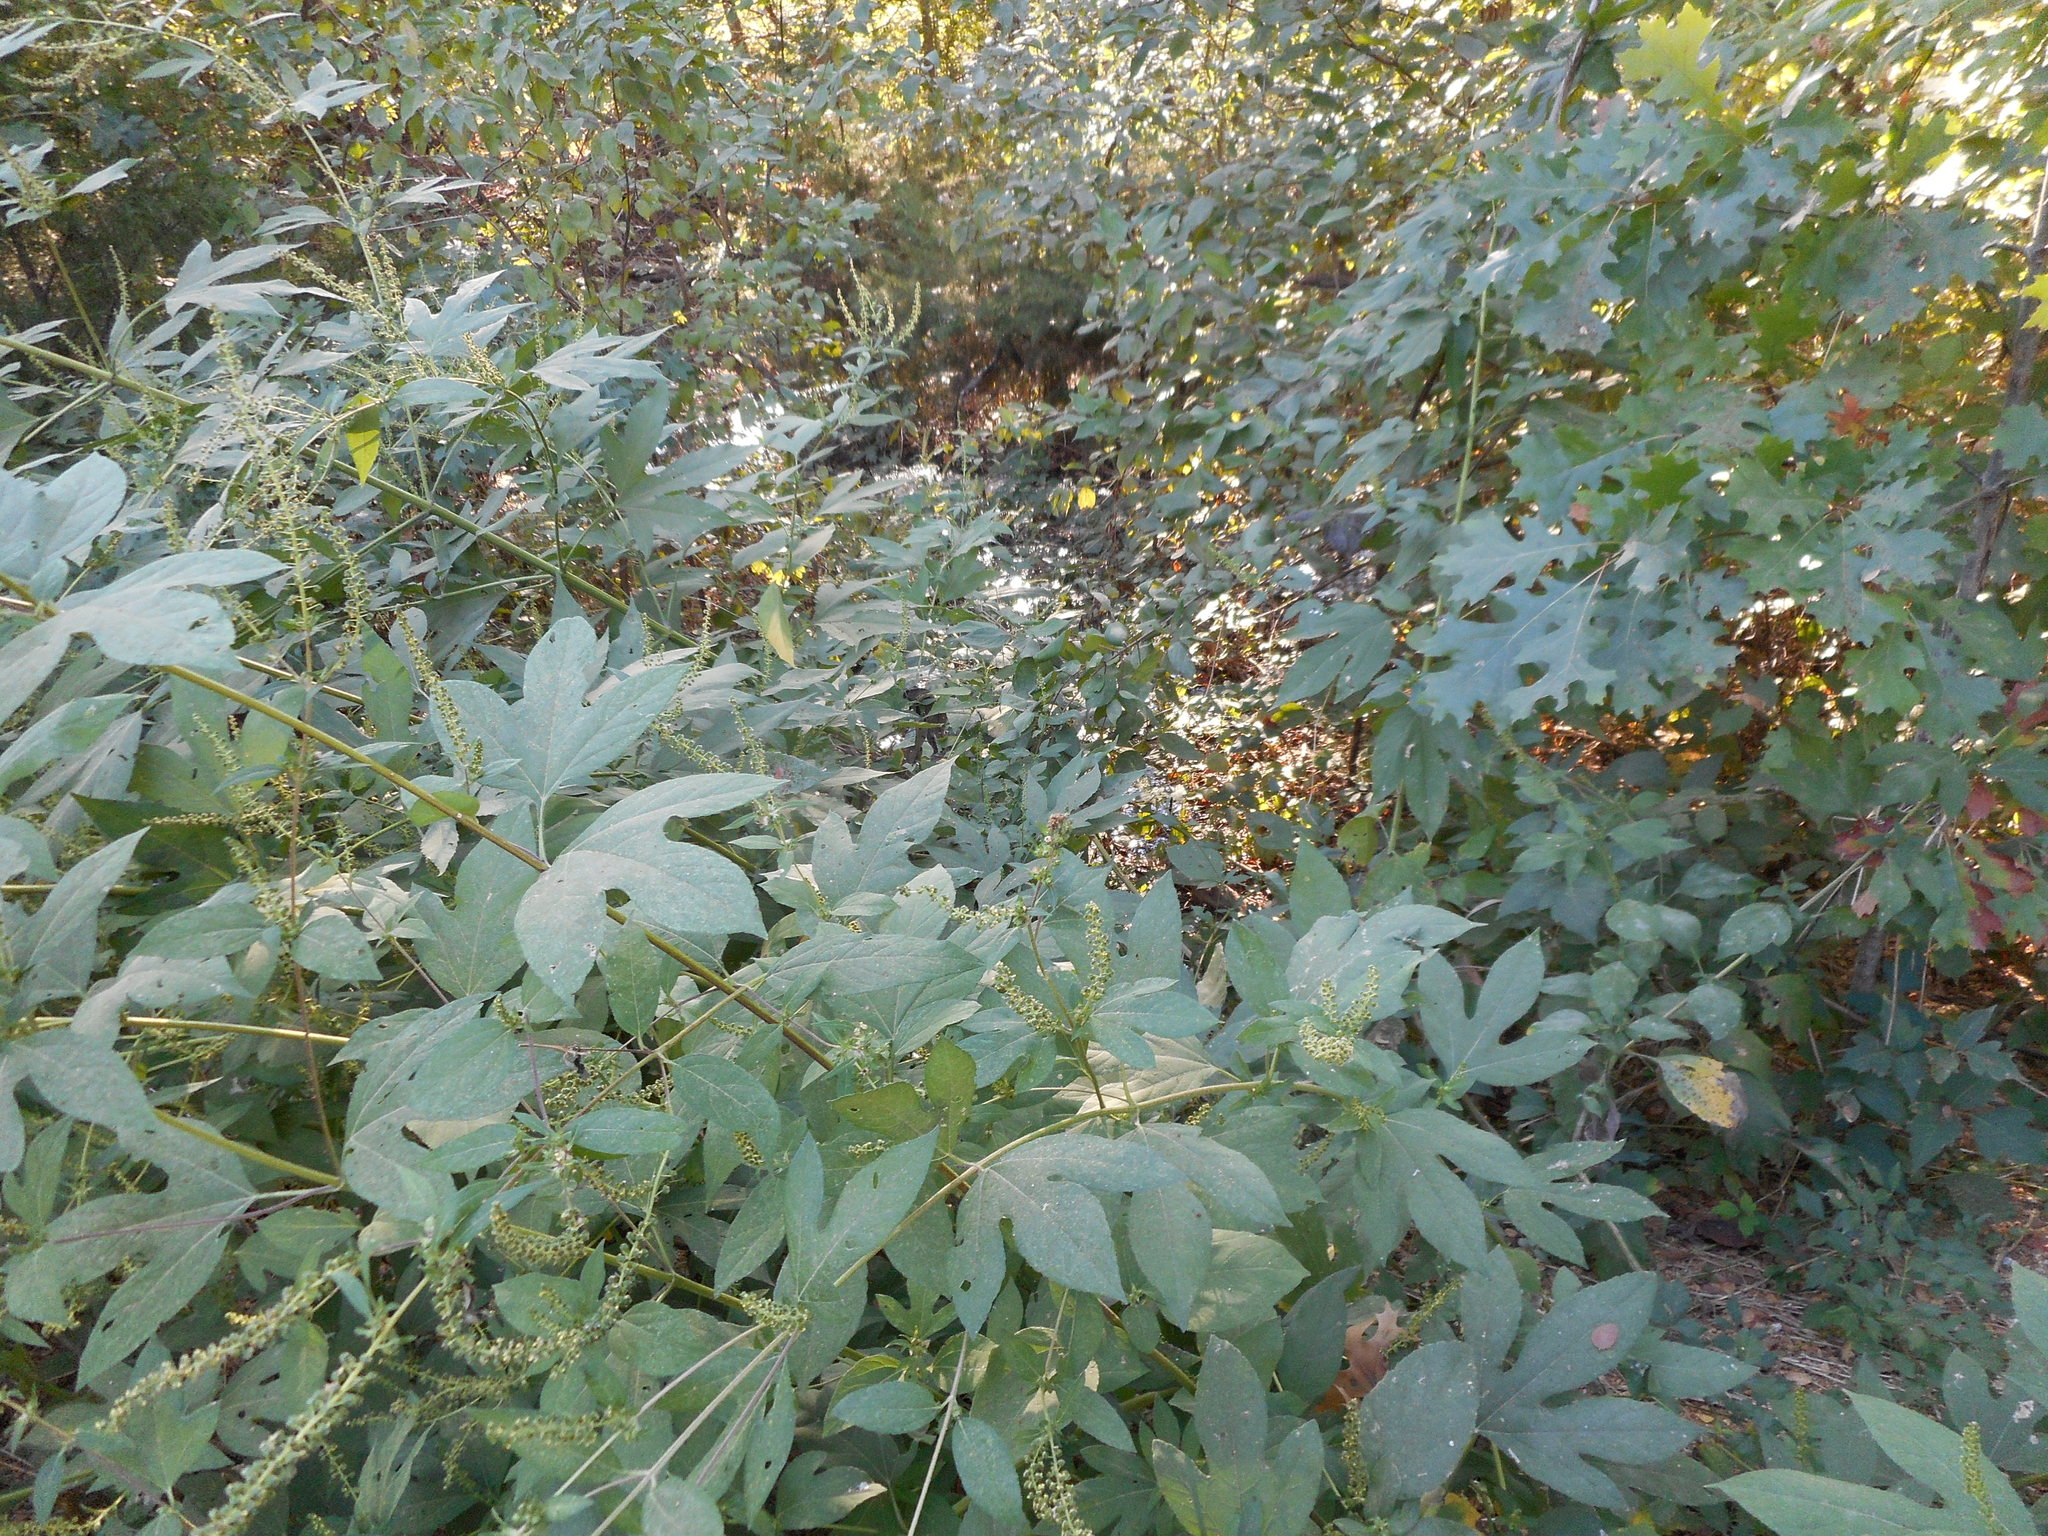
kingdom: Plantae
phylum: Tracheophyta
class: Magnoliopsida
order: Asterales
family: Asteraceae
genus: Ambrosia
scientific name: Ambrosia trifida
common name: Giant ragweed
